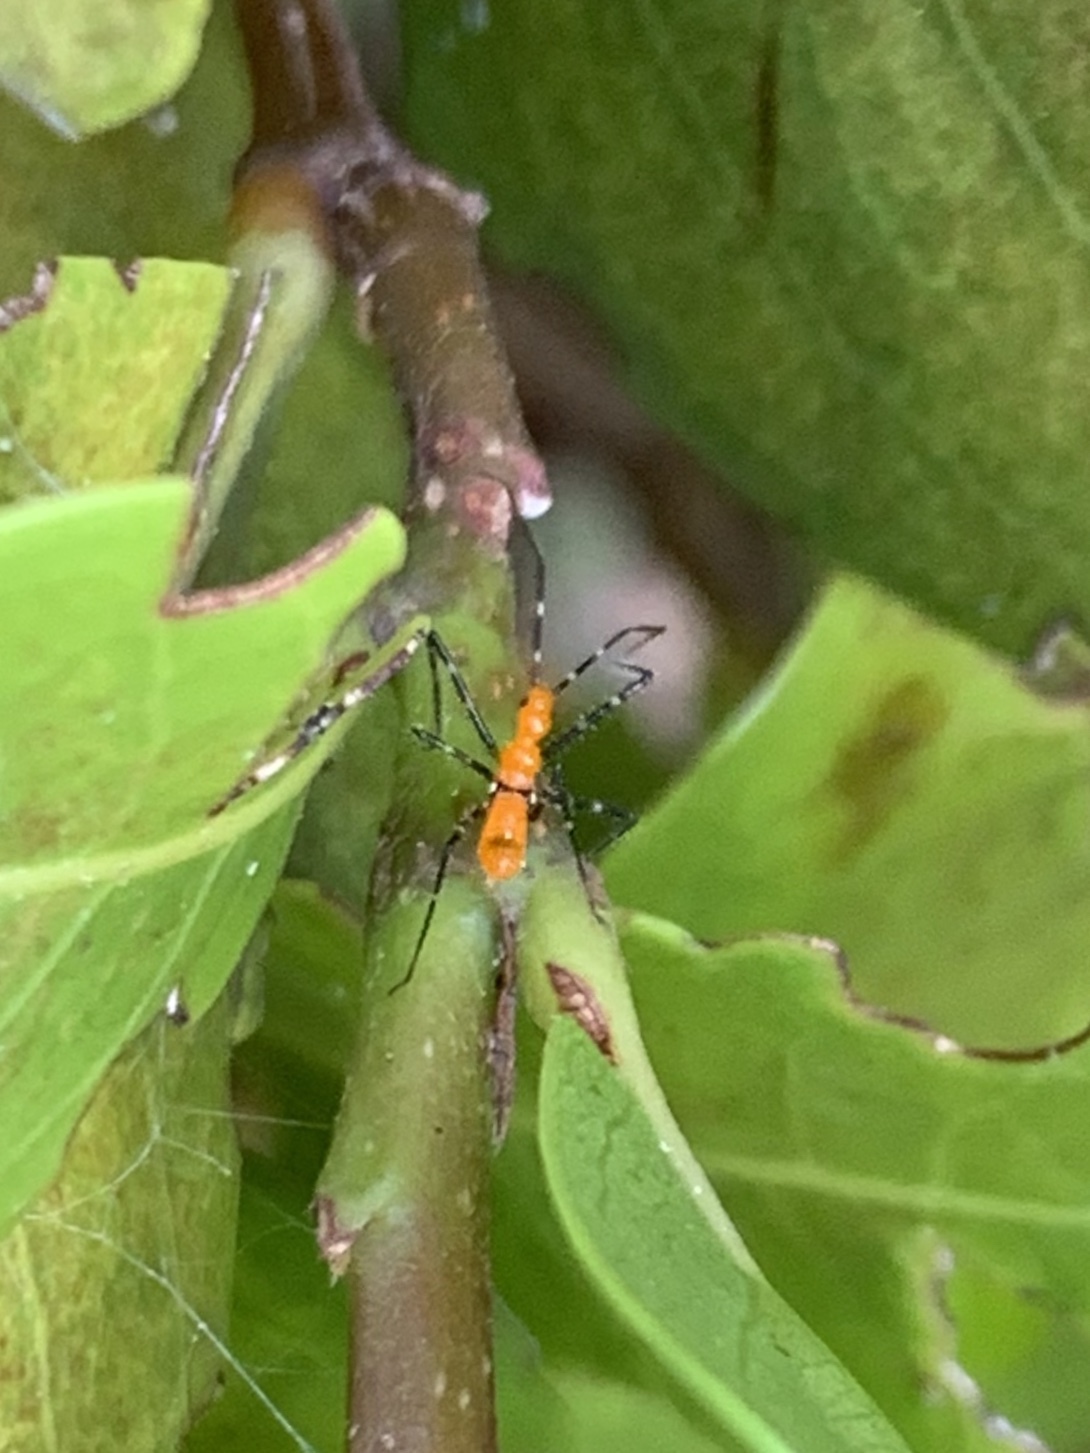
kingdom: Animalia
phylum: Arthropoda
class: Insecta
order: Hemiptera
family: Reduviidae
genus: Zelus
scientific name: Zelus longipes
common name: Milkweed assassin bug
